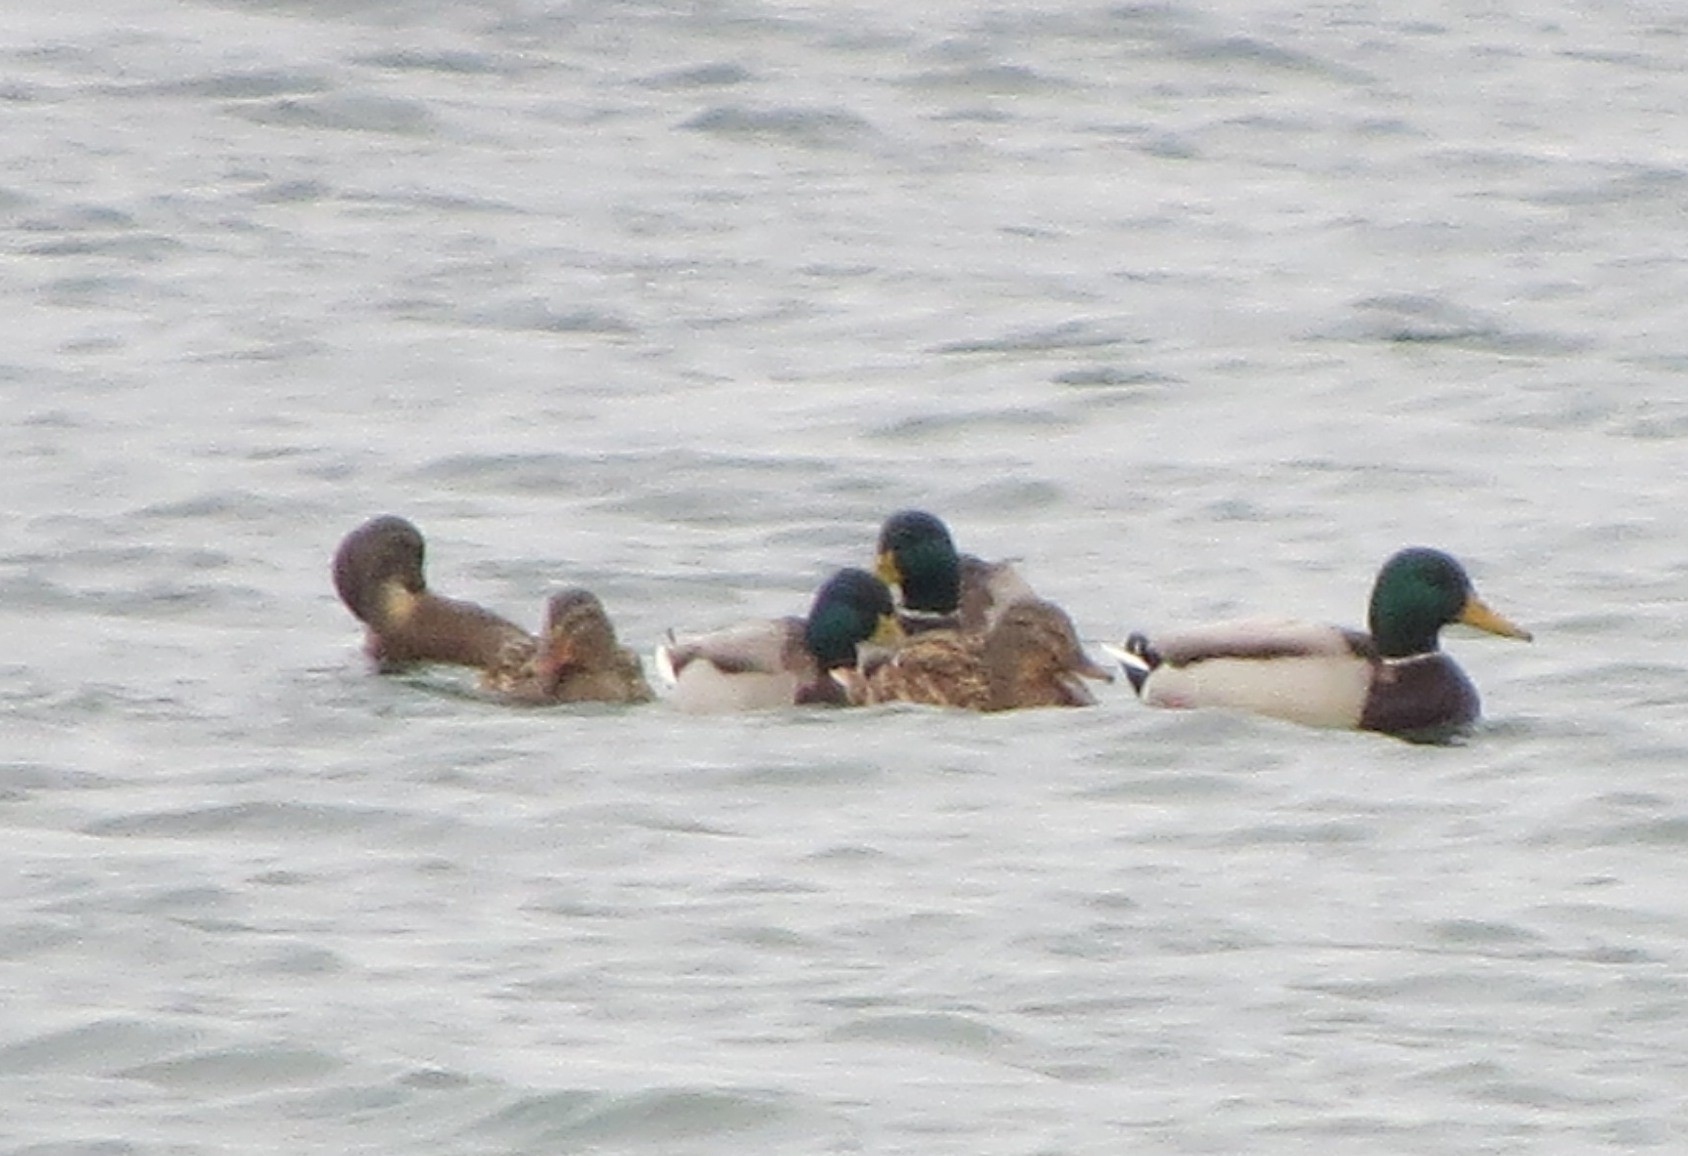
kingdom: Animalia
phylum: Chordata
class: Aves
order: Anseriformes
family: Anatidae
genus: Anas
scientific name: Anas platyrhynchos
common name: Mallard
